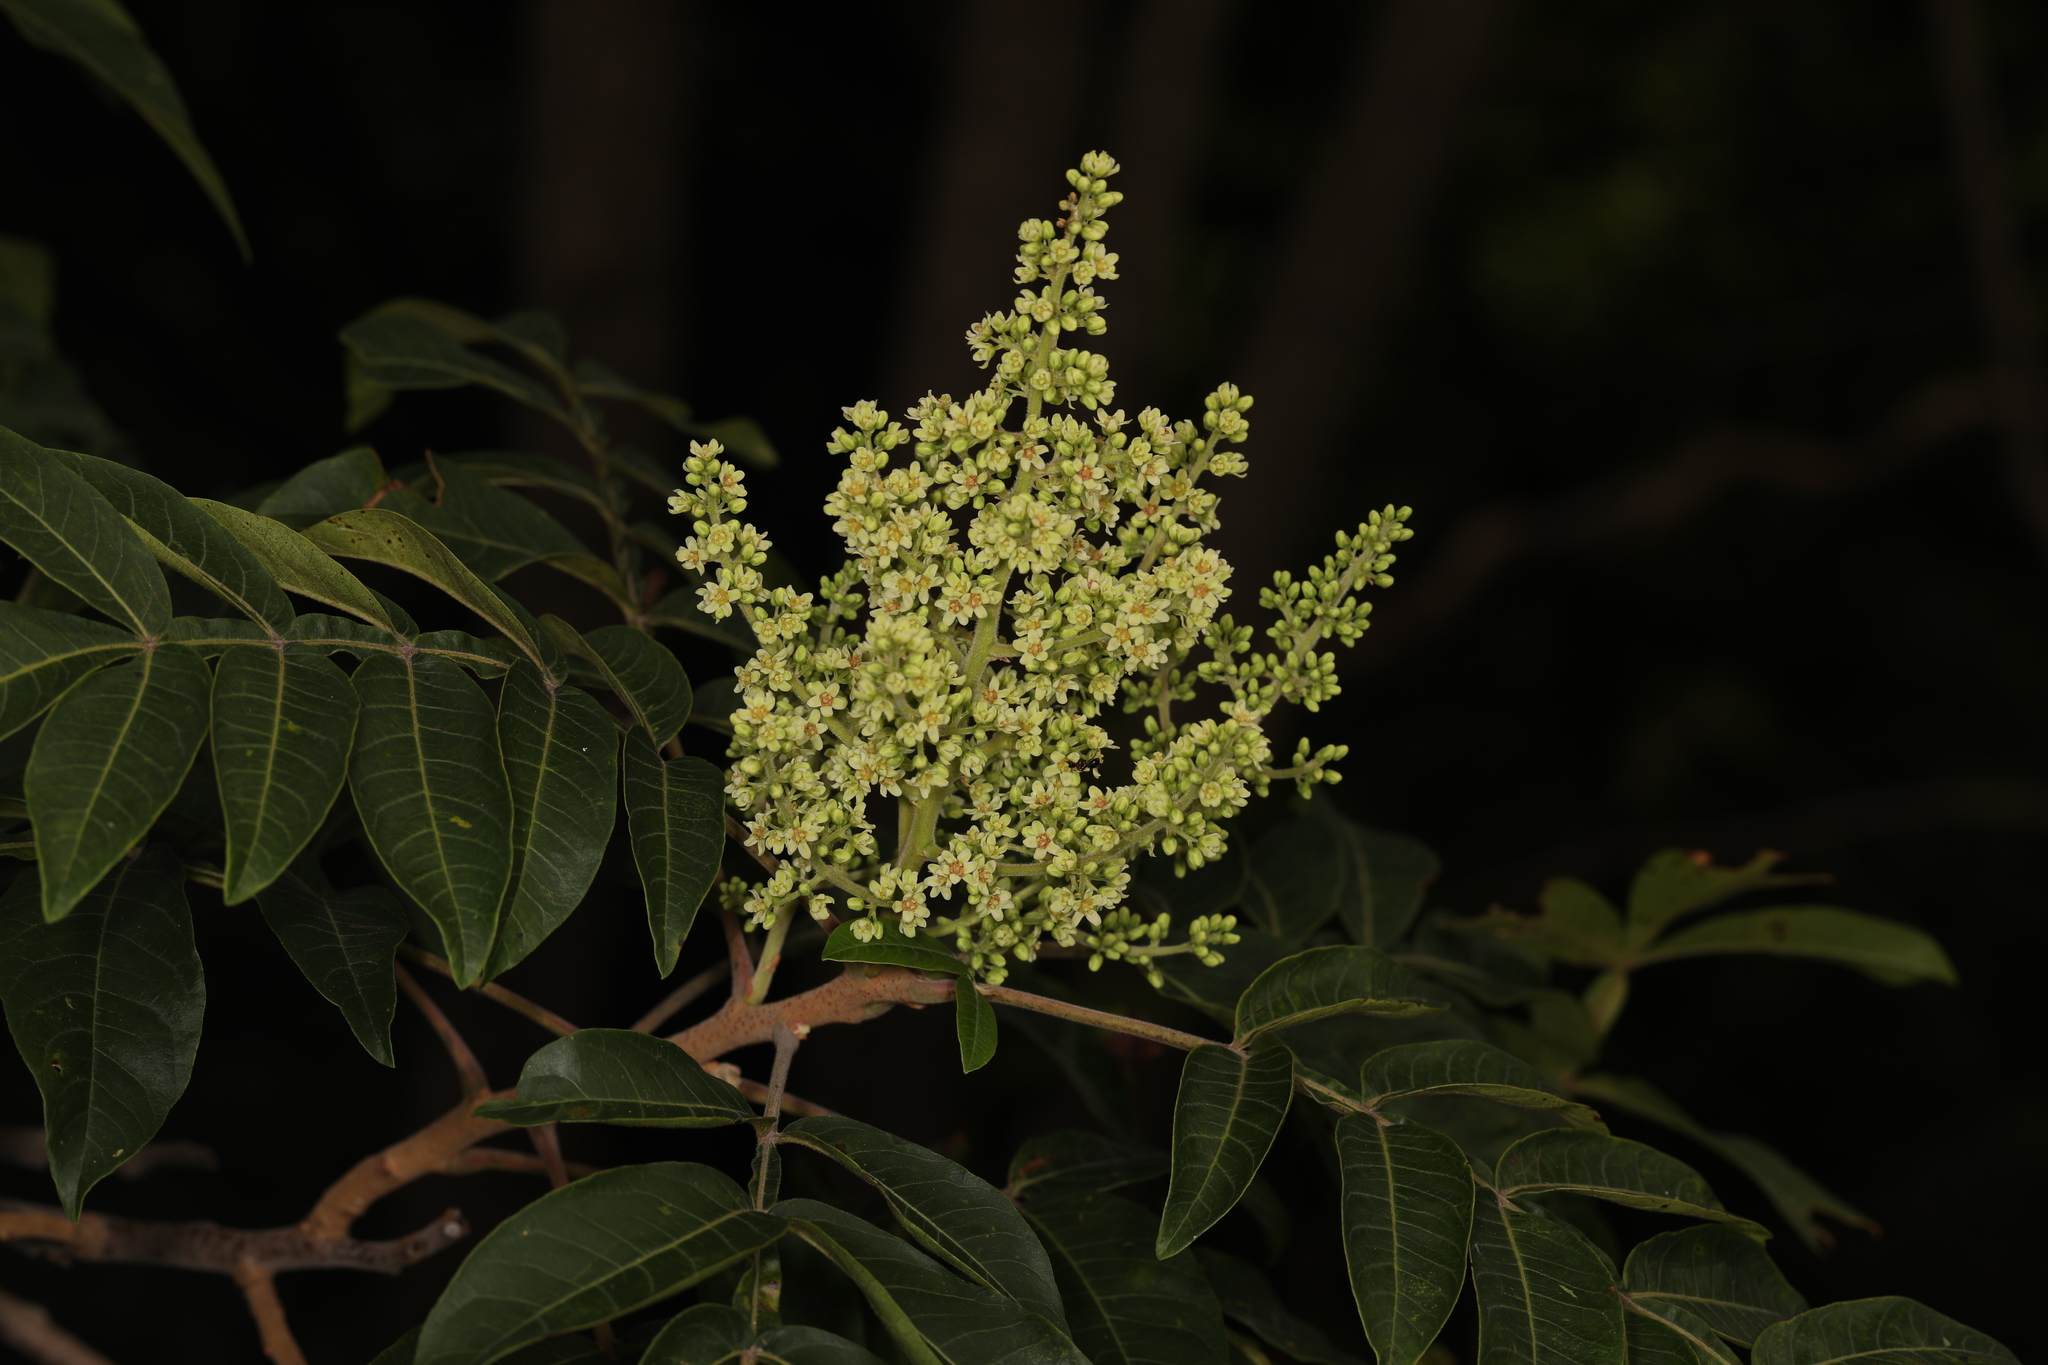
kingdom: Plantae
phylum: Tracheophyta
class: Magnoliopsida
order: Sapindales
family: Anacardiaceae
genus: Rhus
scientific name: Rhus copallina
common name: Shining sumac
